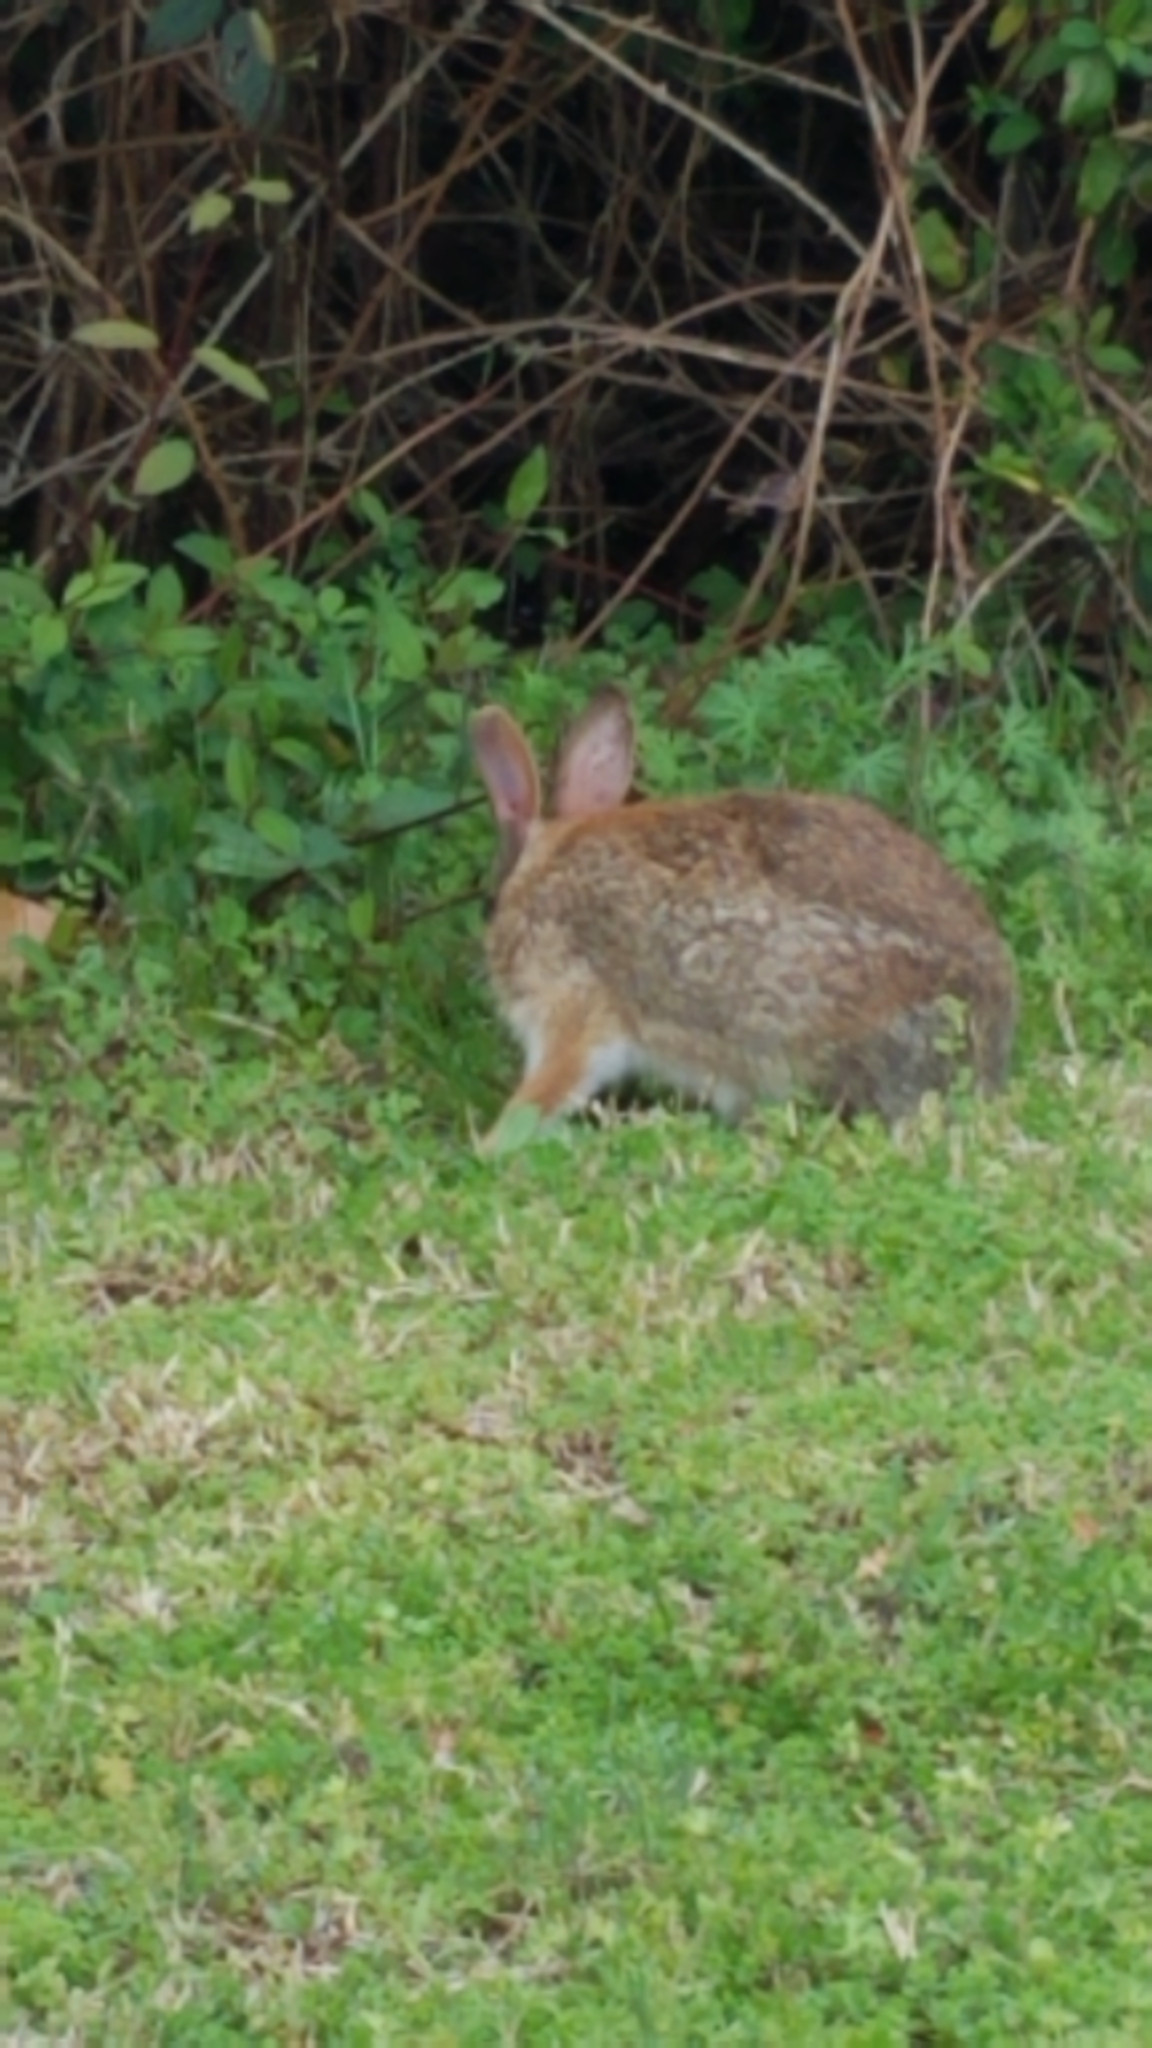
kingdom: Animalia
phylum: Chordata
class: Mammalia
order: Lagomorpha
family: Leporidae
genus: Sylvilagus
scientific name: Sylvilagus floridanus
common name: Eastern cottontail
